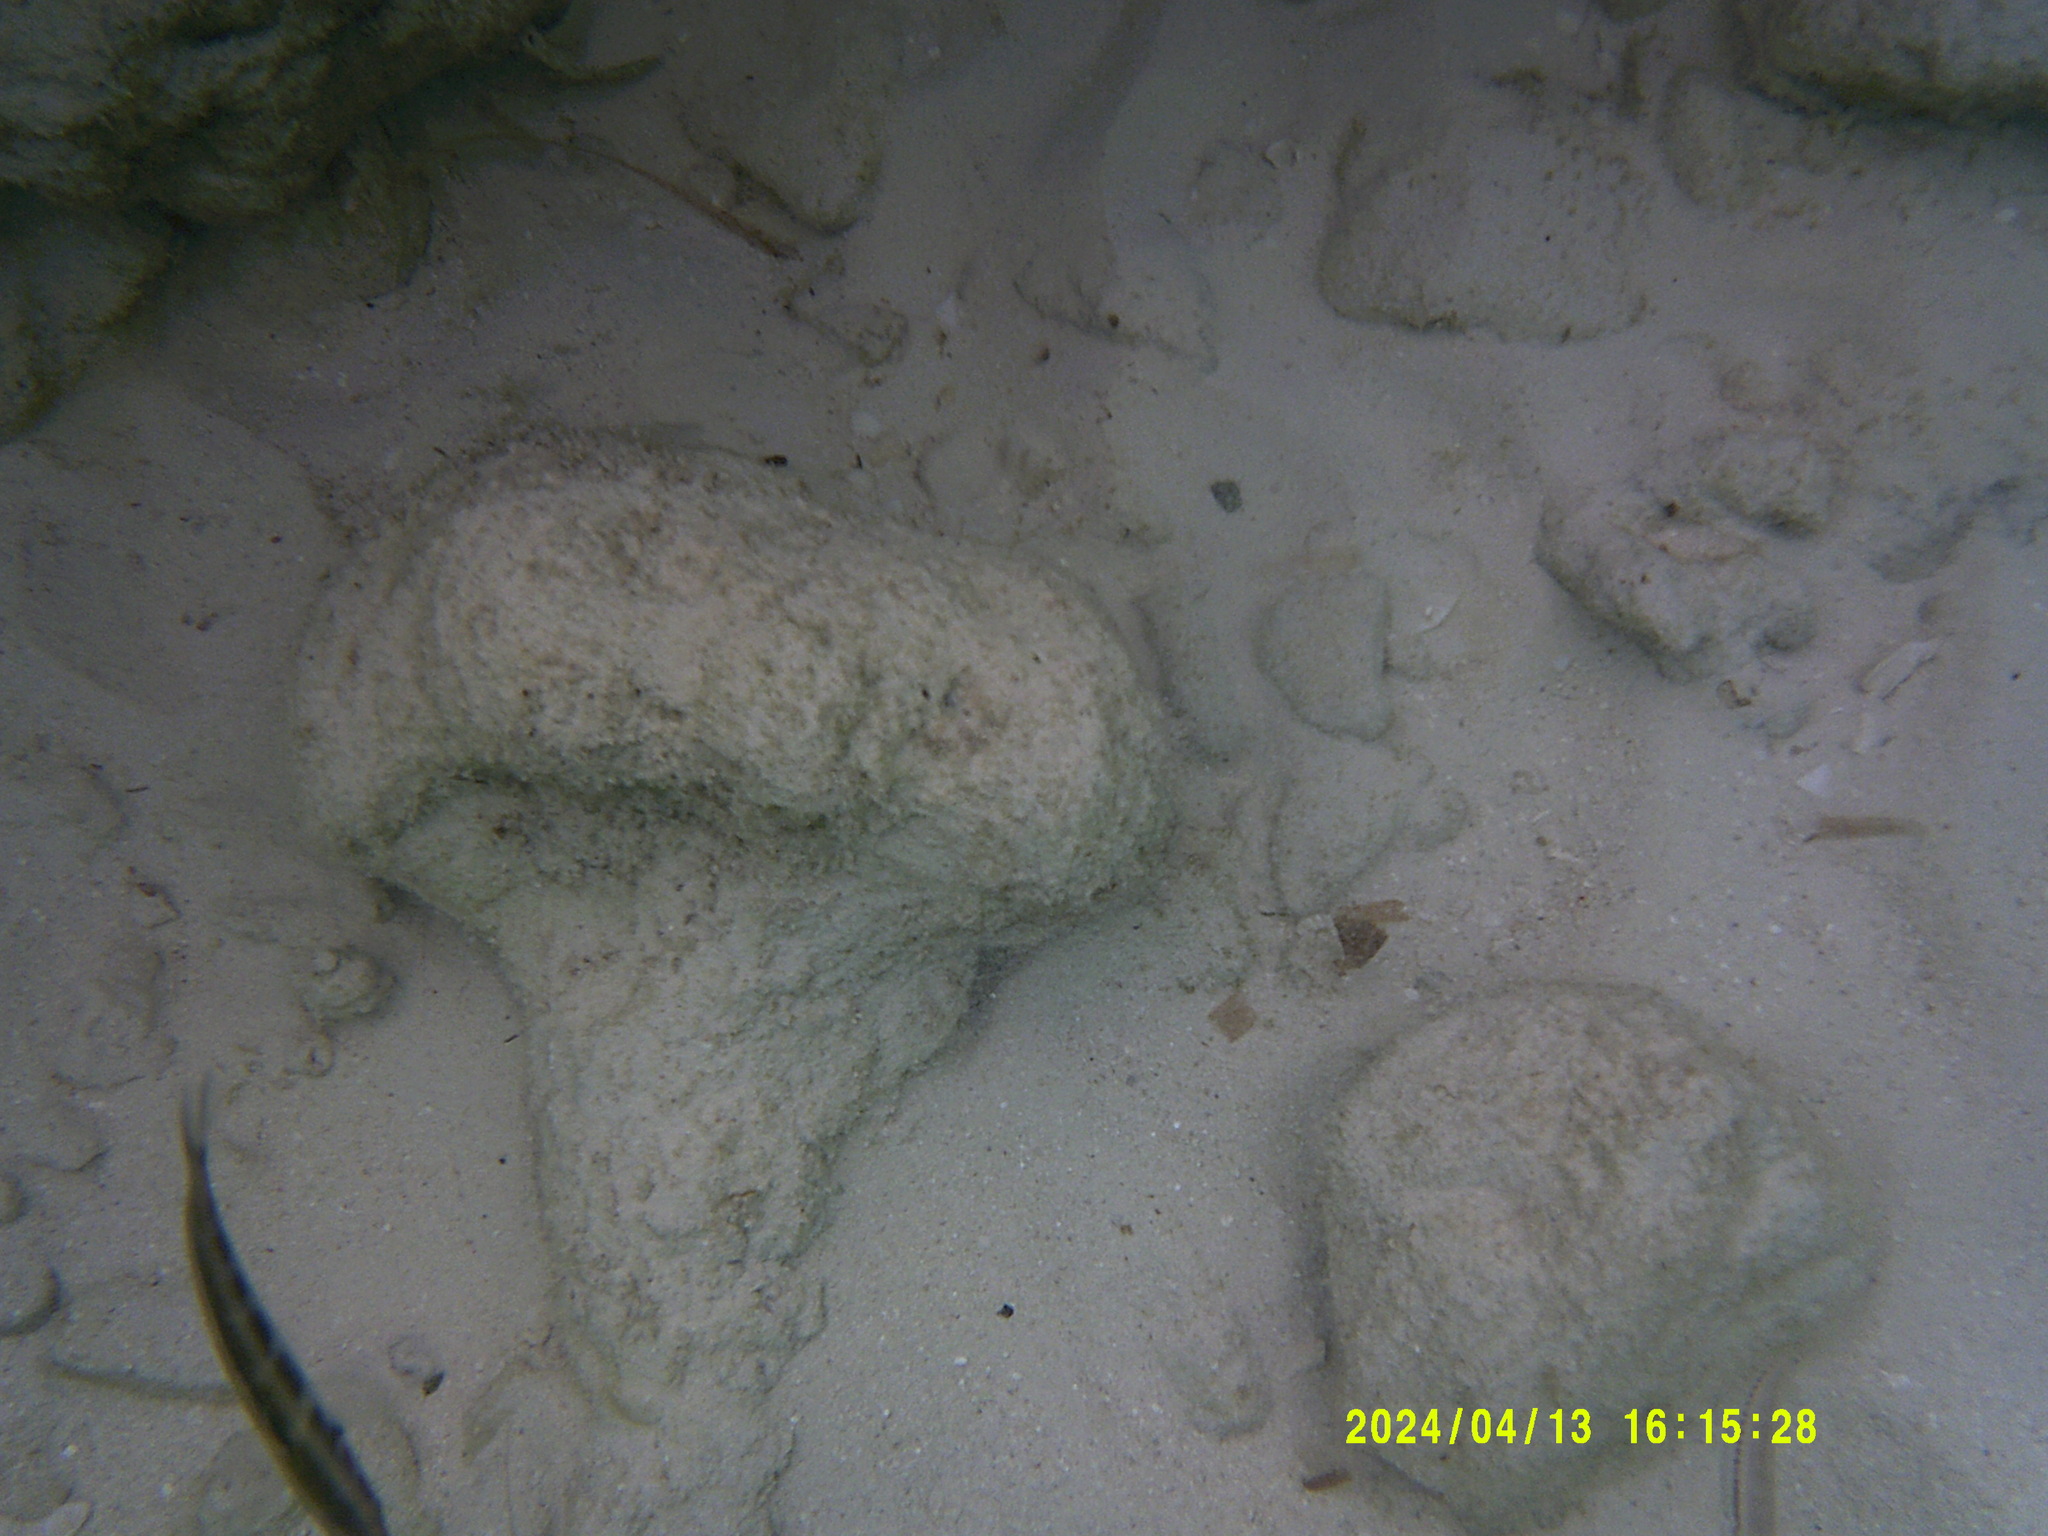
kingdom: Animalia
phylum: Chordata
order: Perciformes
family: Labridae
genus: Thalassoma
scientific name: Thalassoma bifasciatum
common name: Bluehead wrasse
